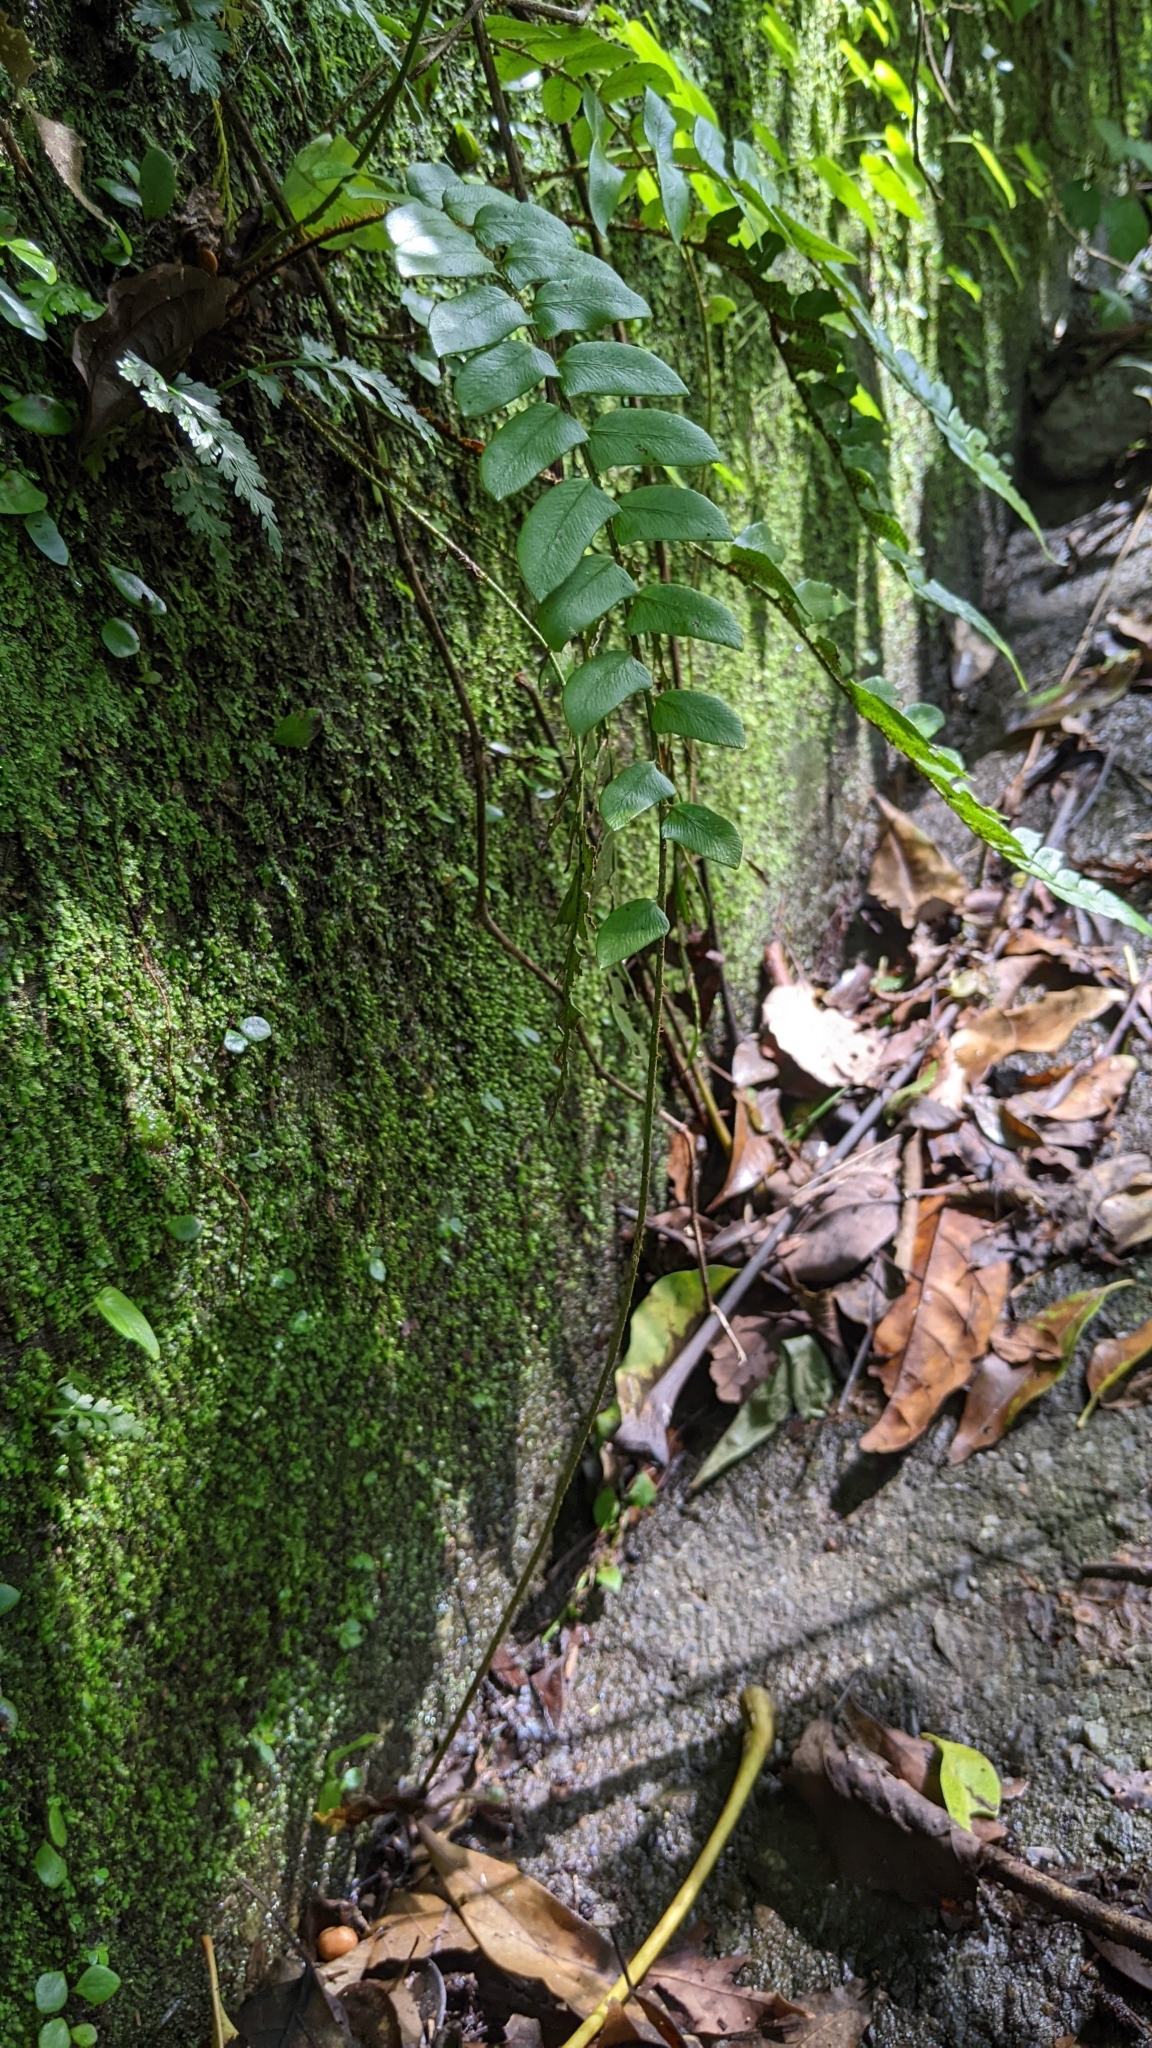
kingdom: Plantae
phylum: Tracheophyta
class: Polypodiopsida
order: Polypodiales
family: Dryopteridaceae
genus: Polystichum
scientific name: Polystichum lepidocaulon
